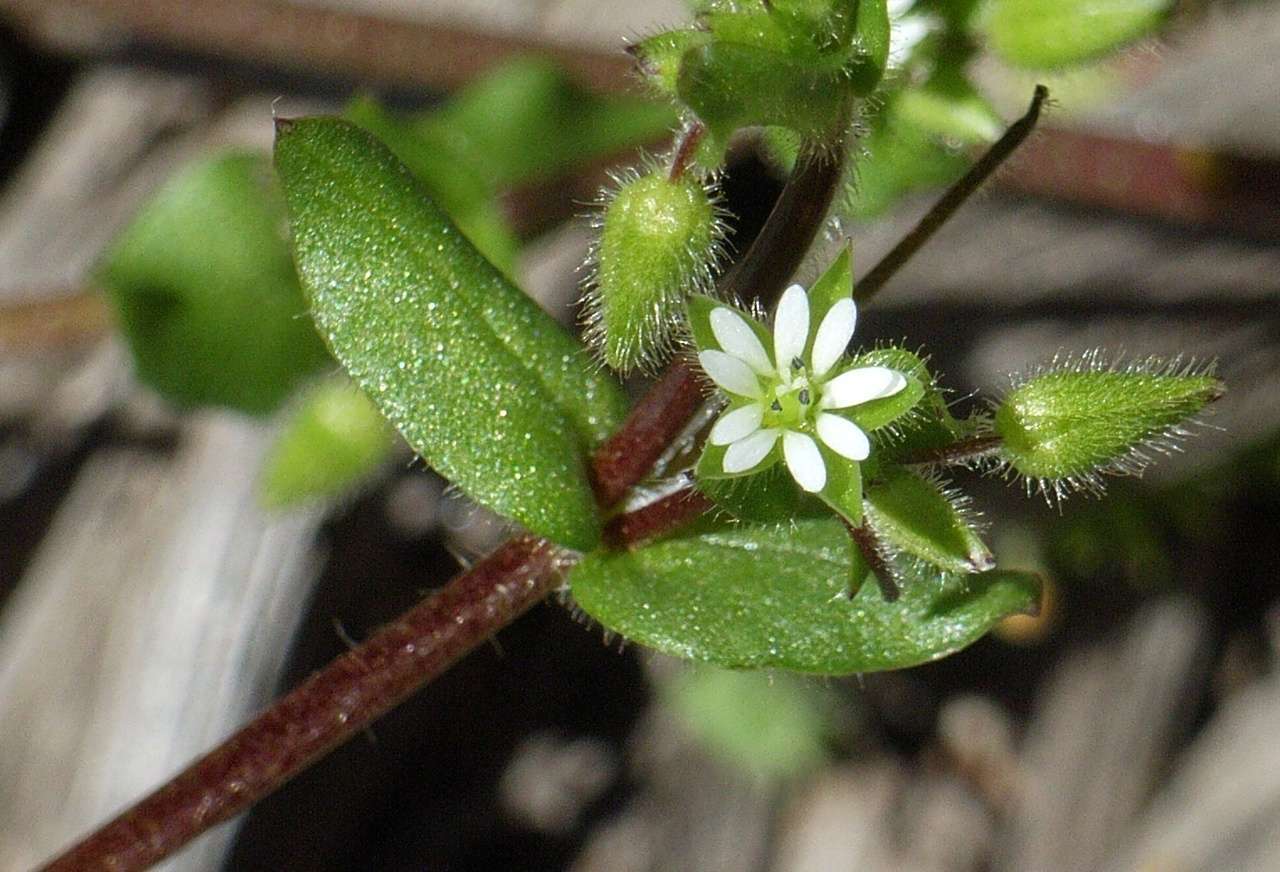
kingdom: Plantae
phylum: Tracheophyta
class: Magnoliopsida
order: Caryophyllales
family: Caryophyllaceae
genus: Cerastium
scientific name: Cerastium glomeratum
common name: Sticky chickweed
